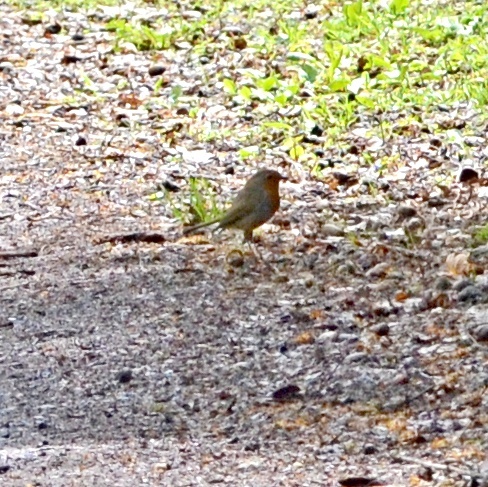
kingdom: Animalia
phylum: Chordata
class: Aves
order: Passeriformes
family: Muscicapidae
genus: Erithacus
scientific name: Erithacus rubecula
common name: European robin
